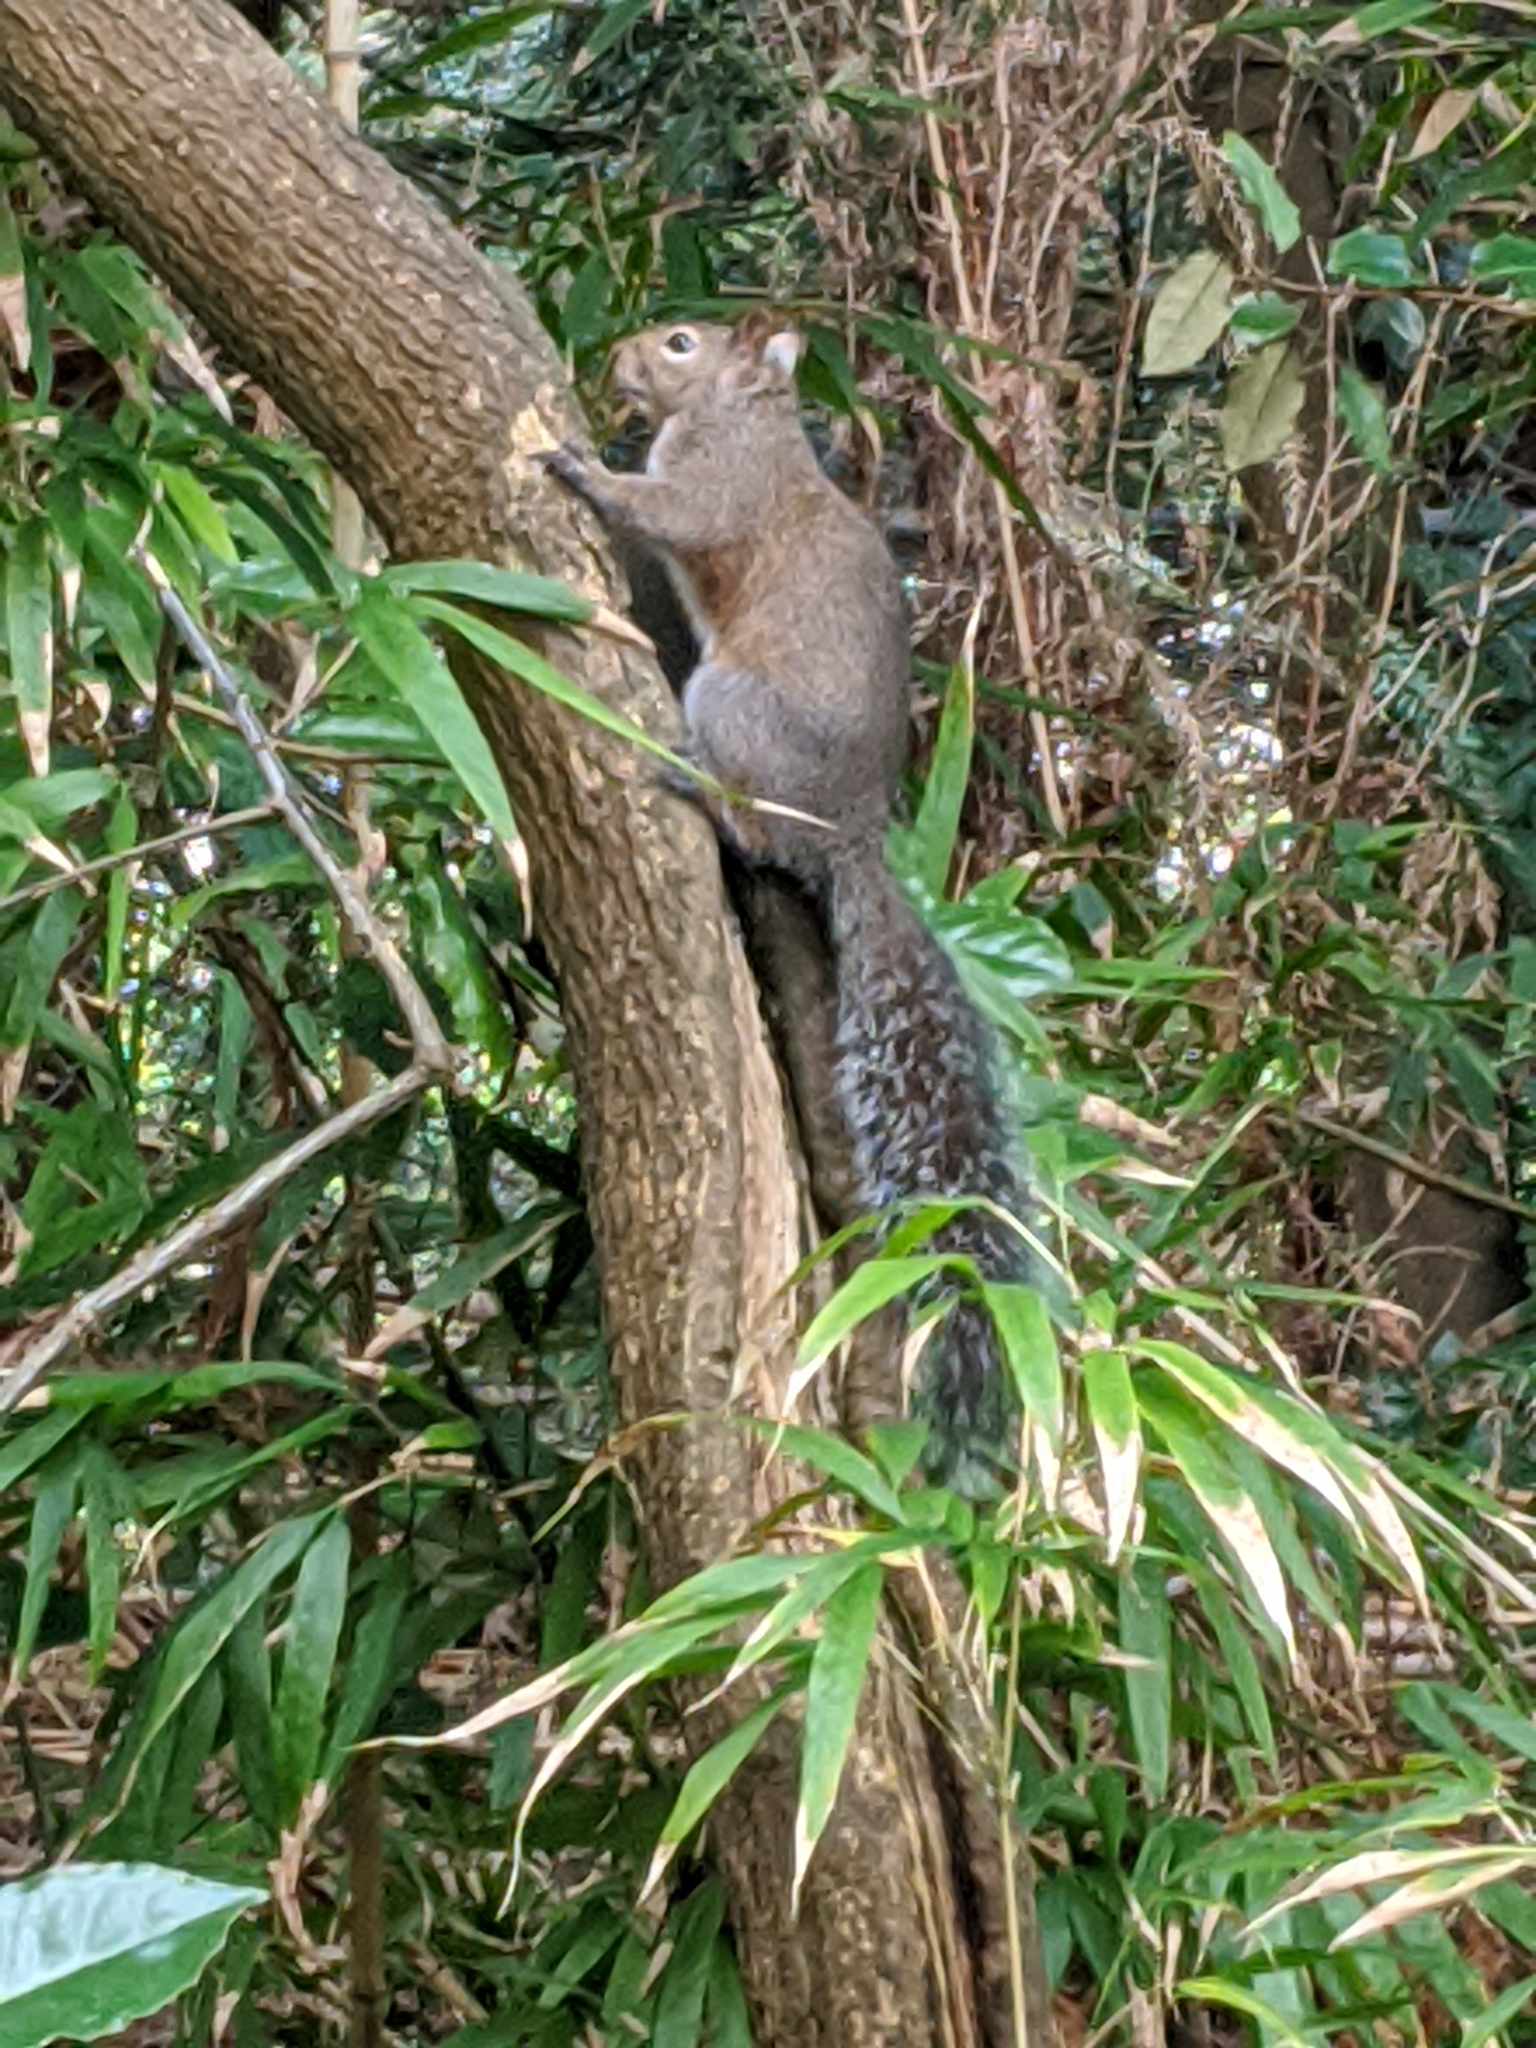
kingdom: Animalia
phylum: Chordata
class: Mammalia
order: Rodentia
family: Sciuridae
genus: Sciurus
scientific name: Sciurus carolinensis
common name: Eastern gray squirrel
